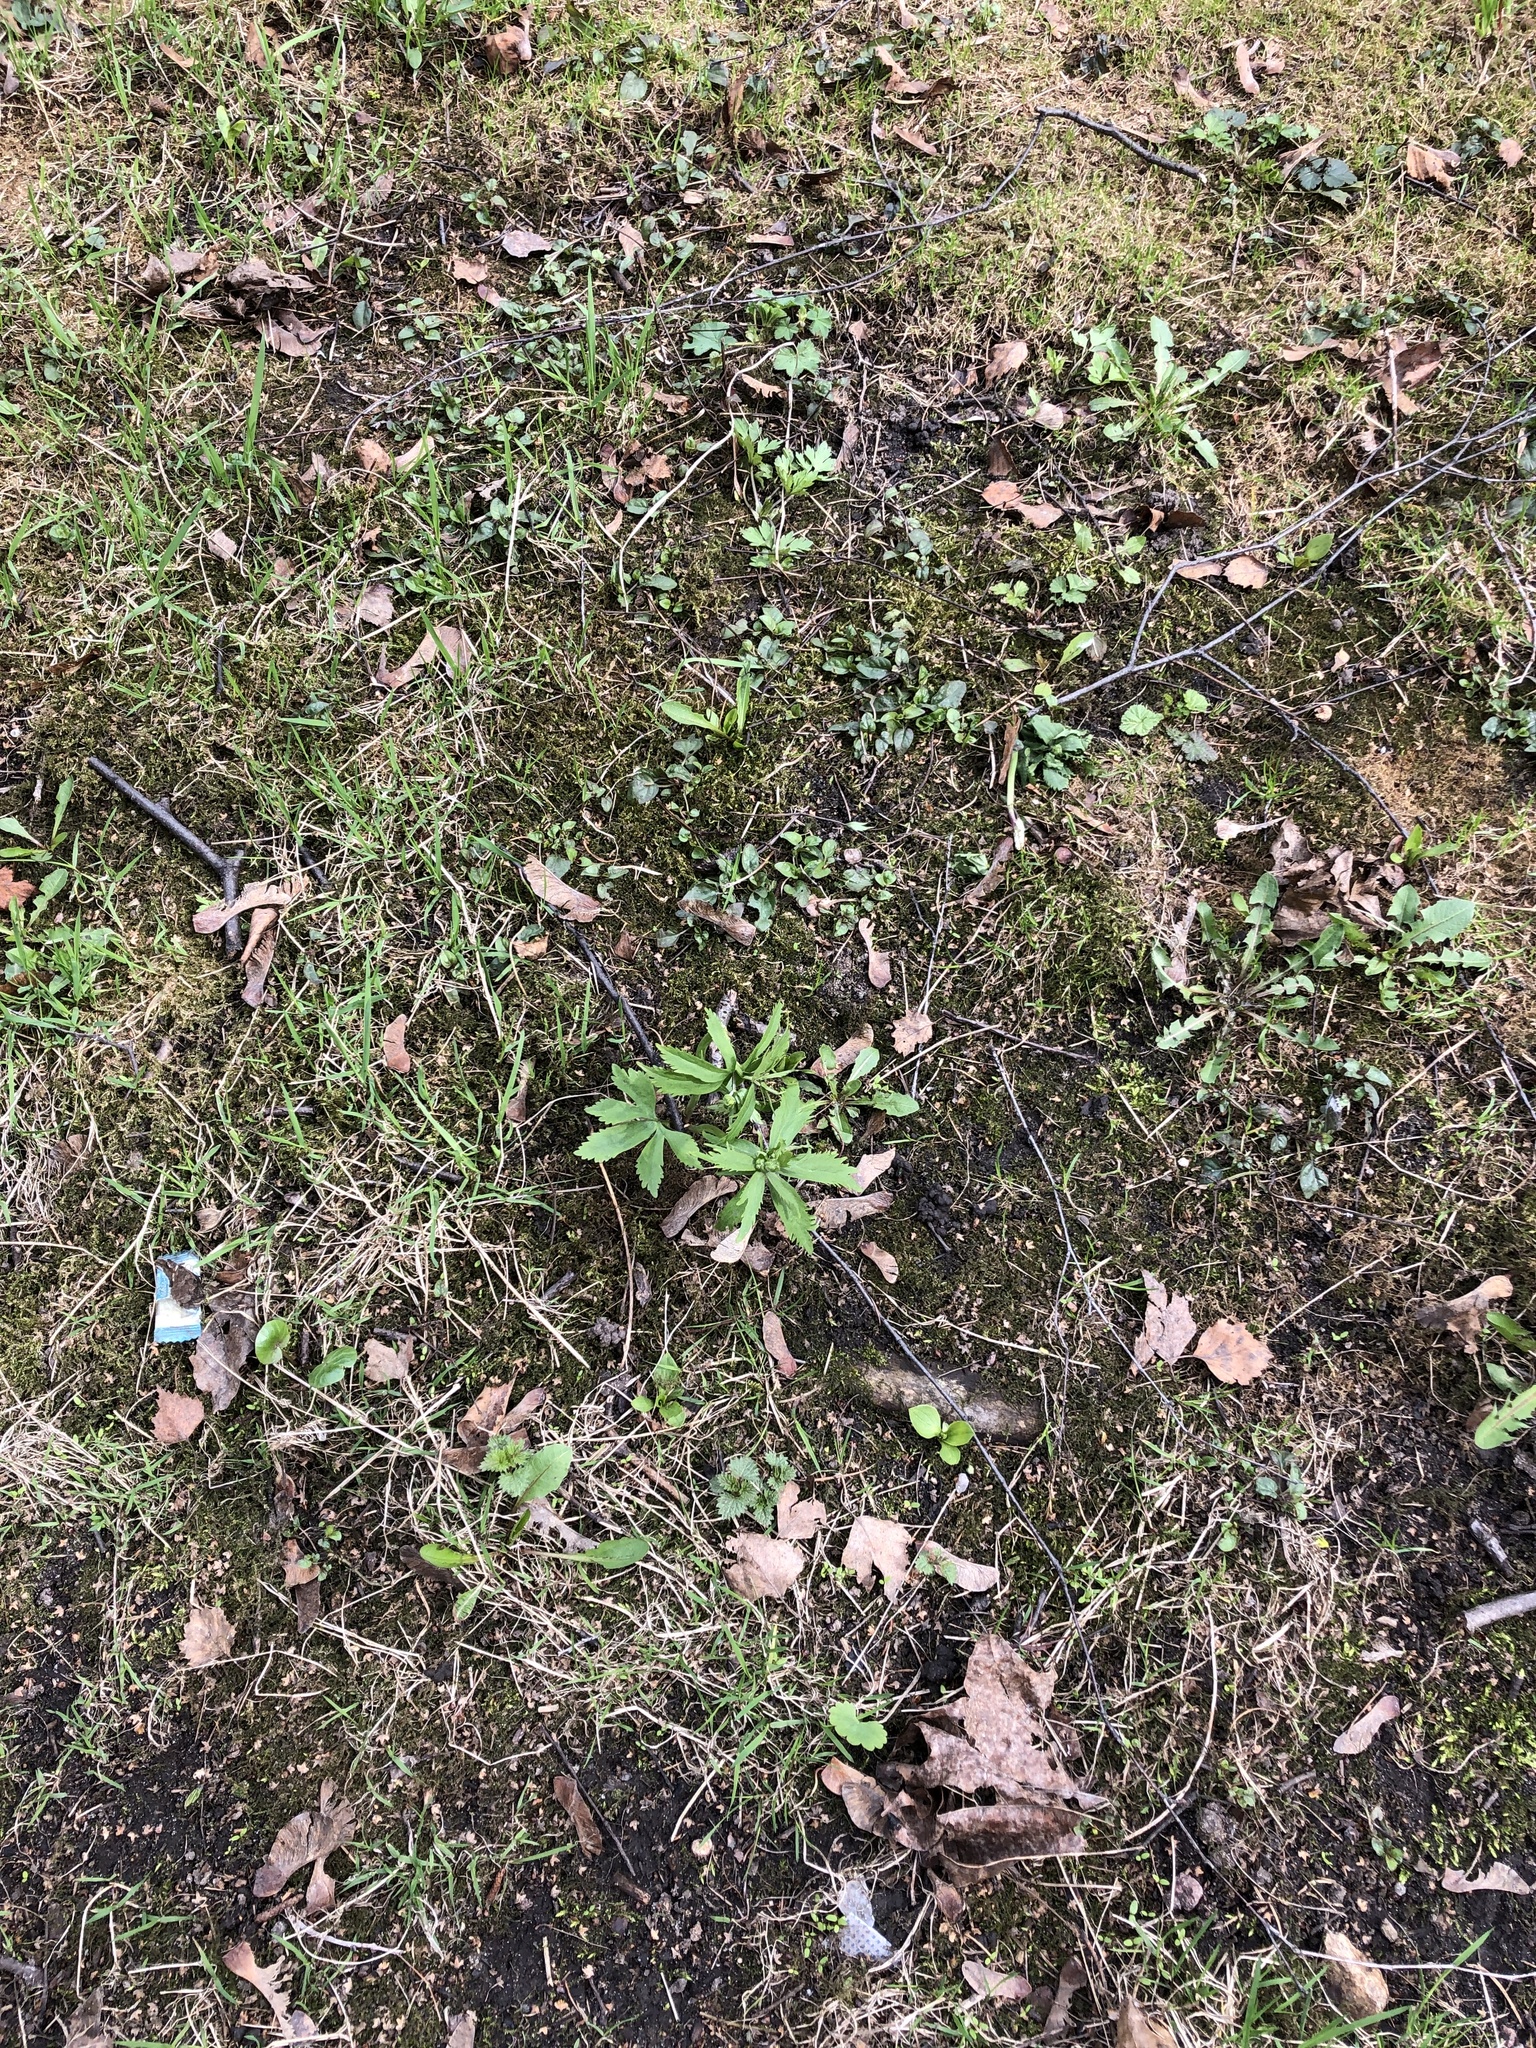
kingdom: Plantae
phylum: Tracheophyta
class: Magnoliopsida
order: Ranunculales
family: Ranunculaceae
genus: Ranunculus
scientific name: Ranunculus cassubicus
